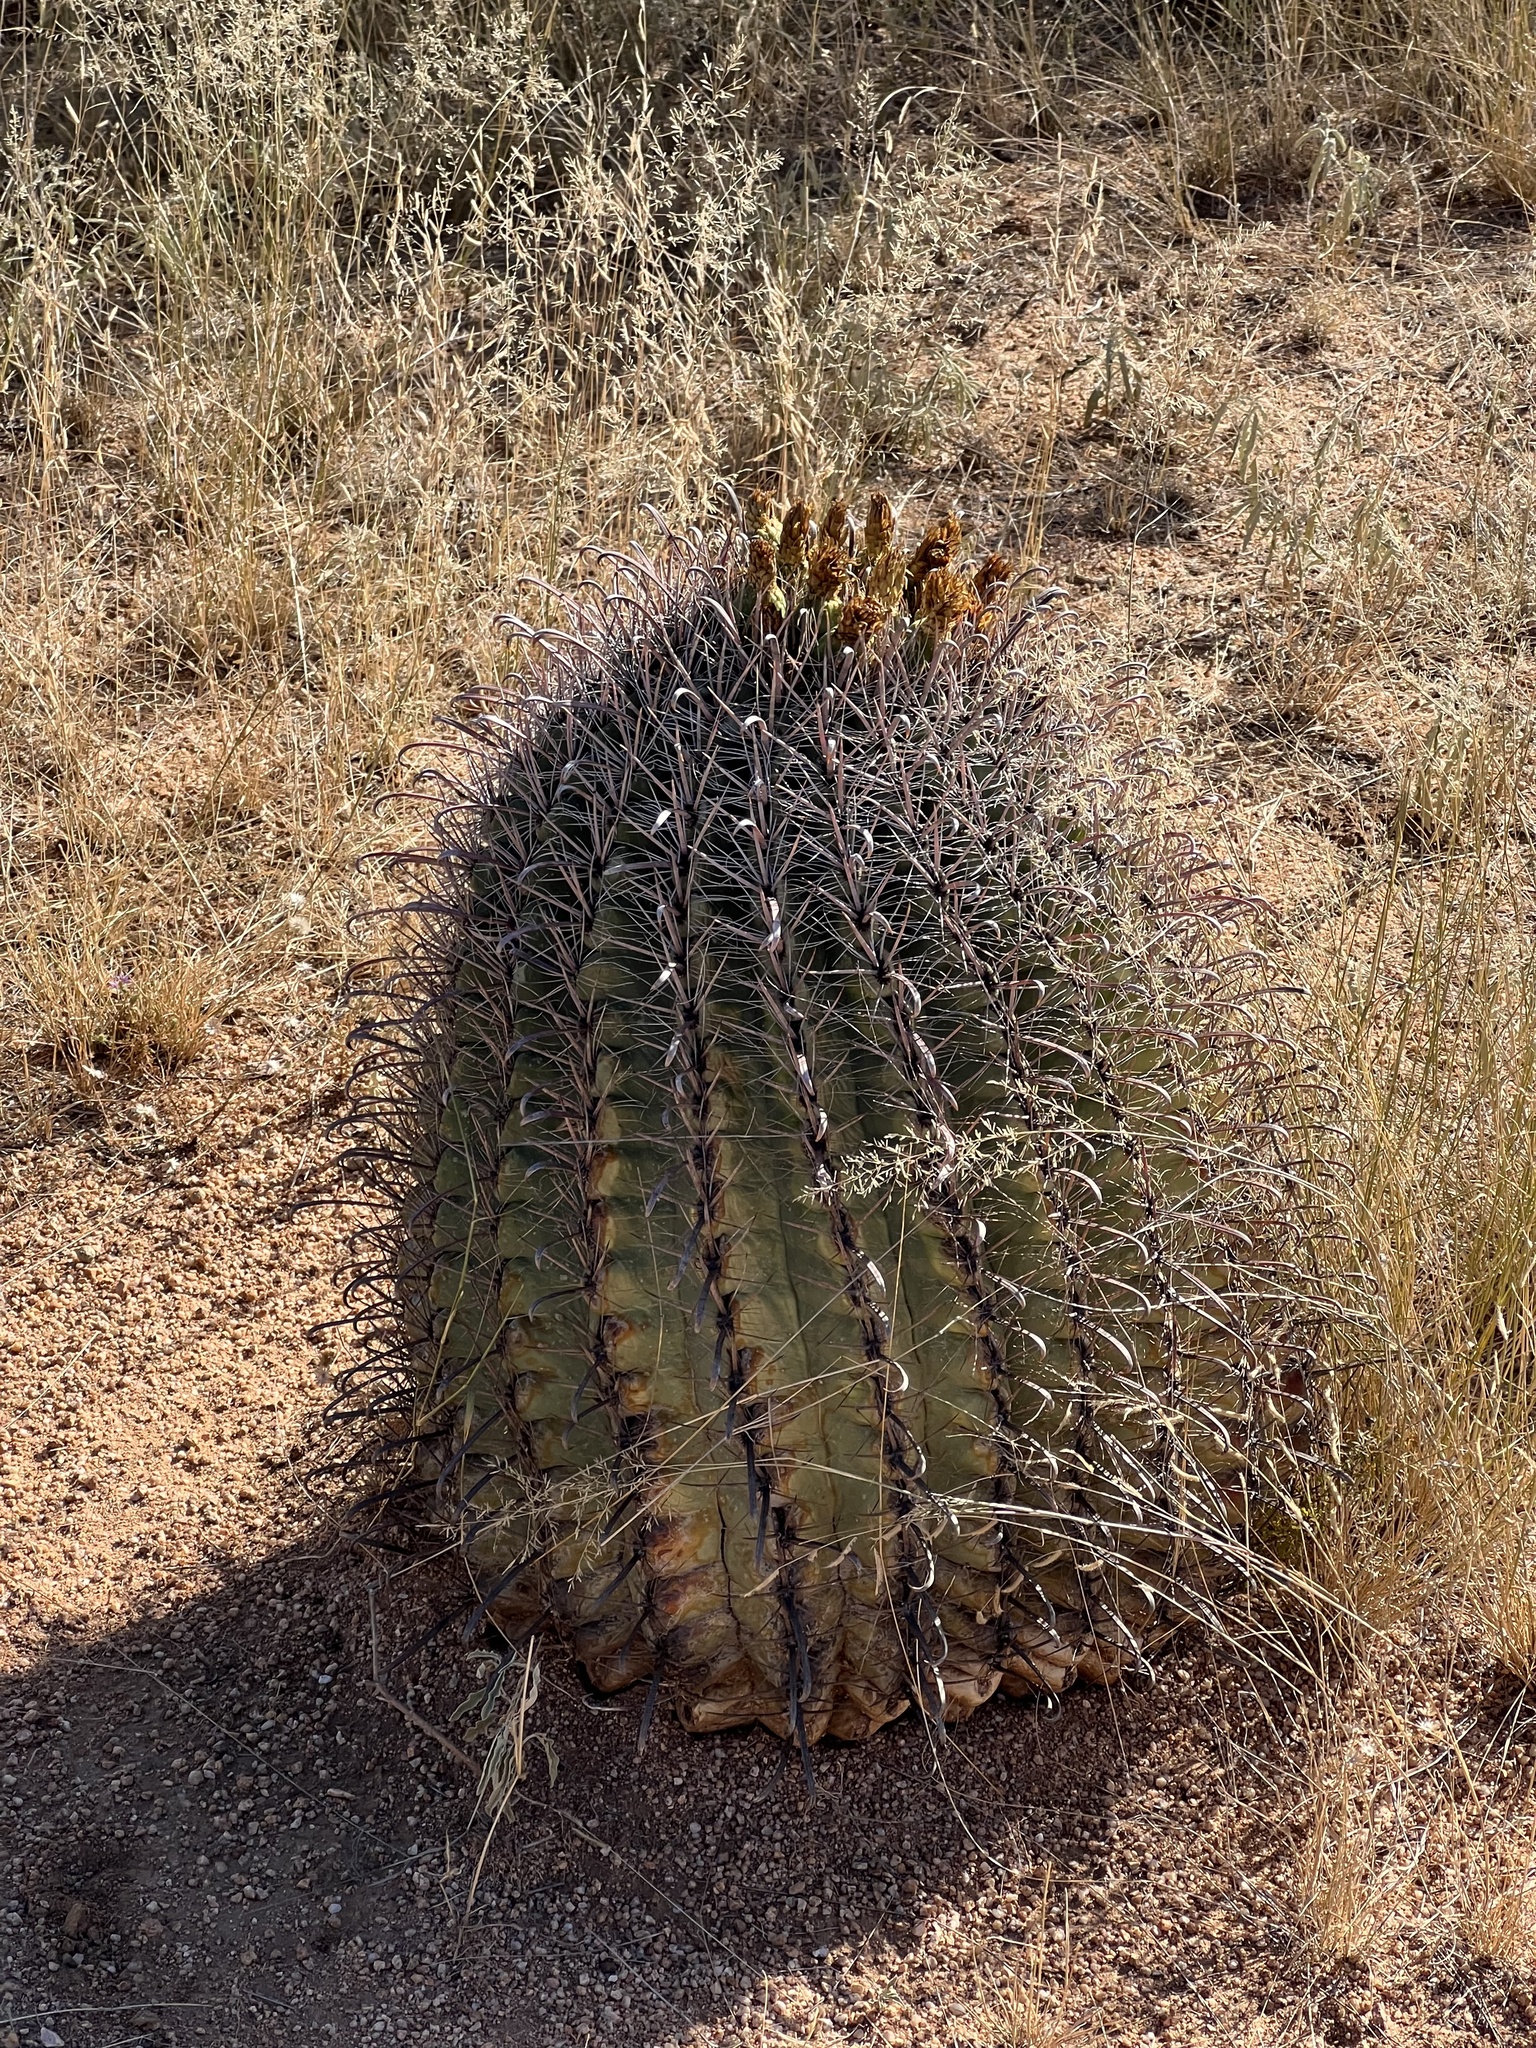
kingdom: Plantae
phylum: Tracheophyta
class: Magnoliopsida
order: Caryophyllales
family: Cactaceae
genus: Ferocactus
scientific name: Ferocactus wislizeni
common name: Candy barrel cactus
